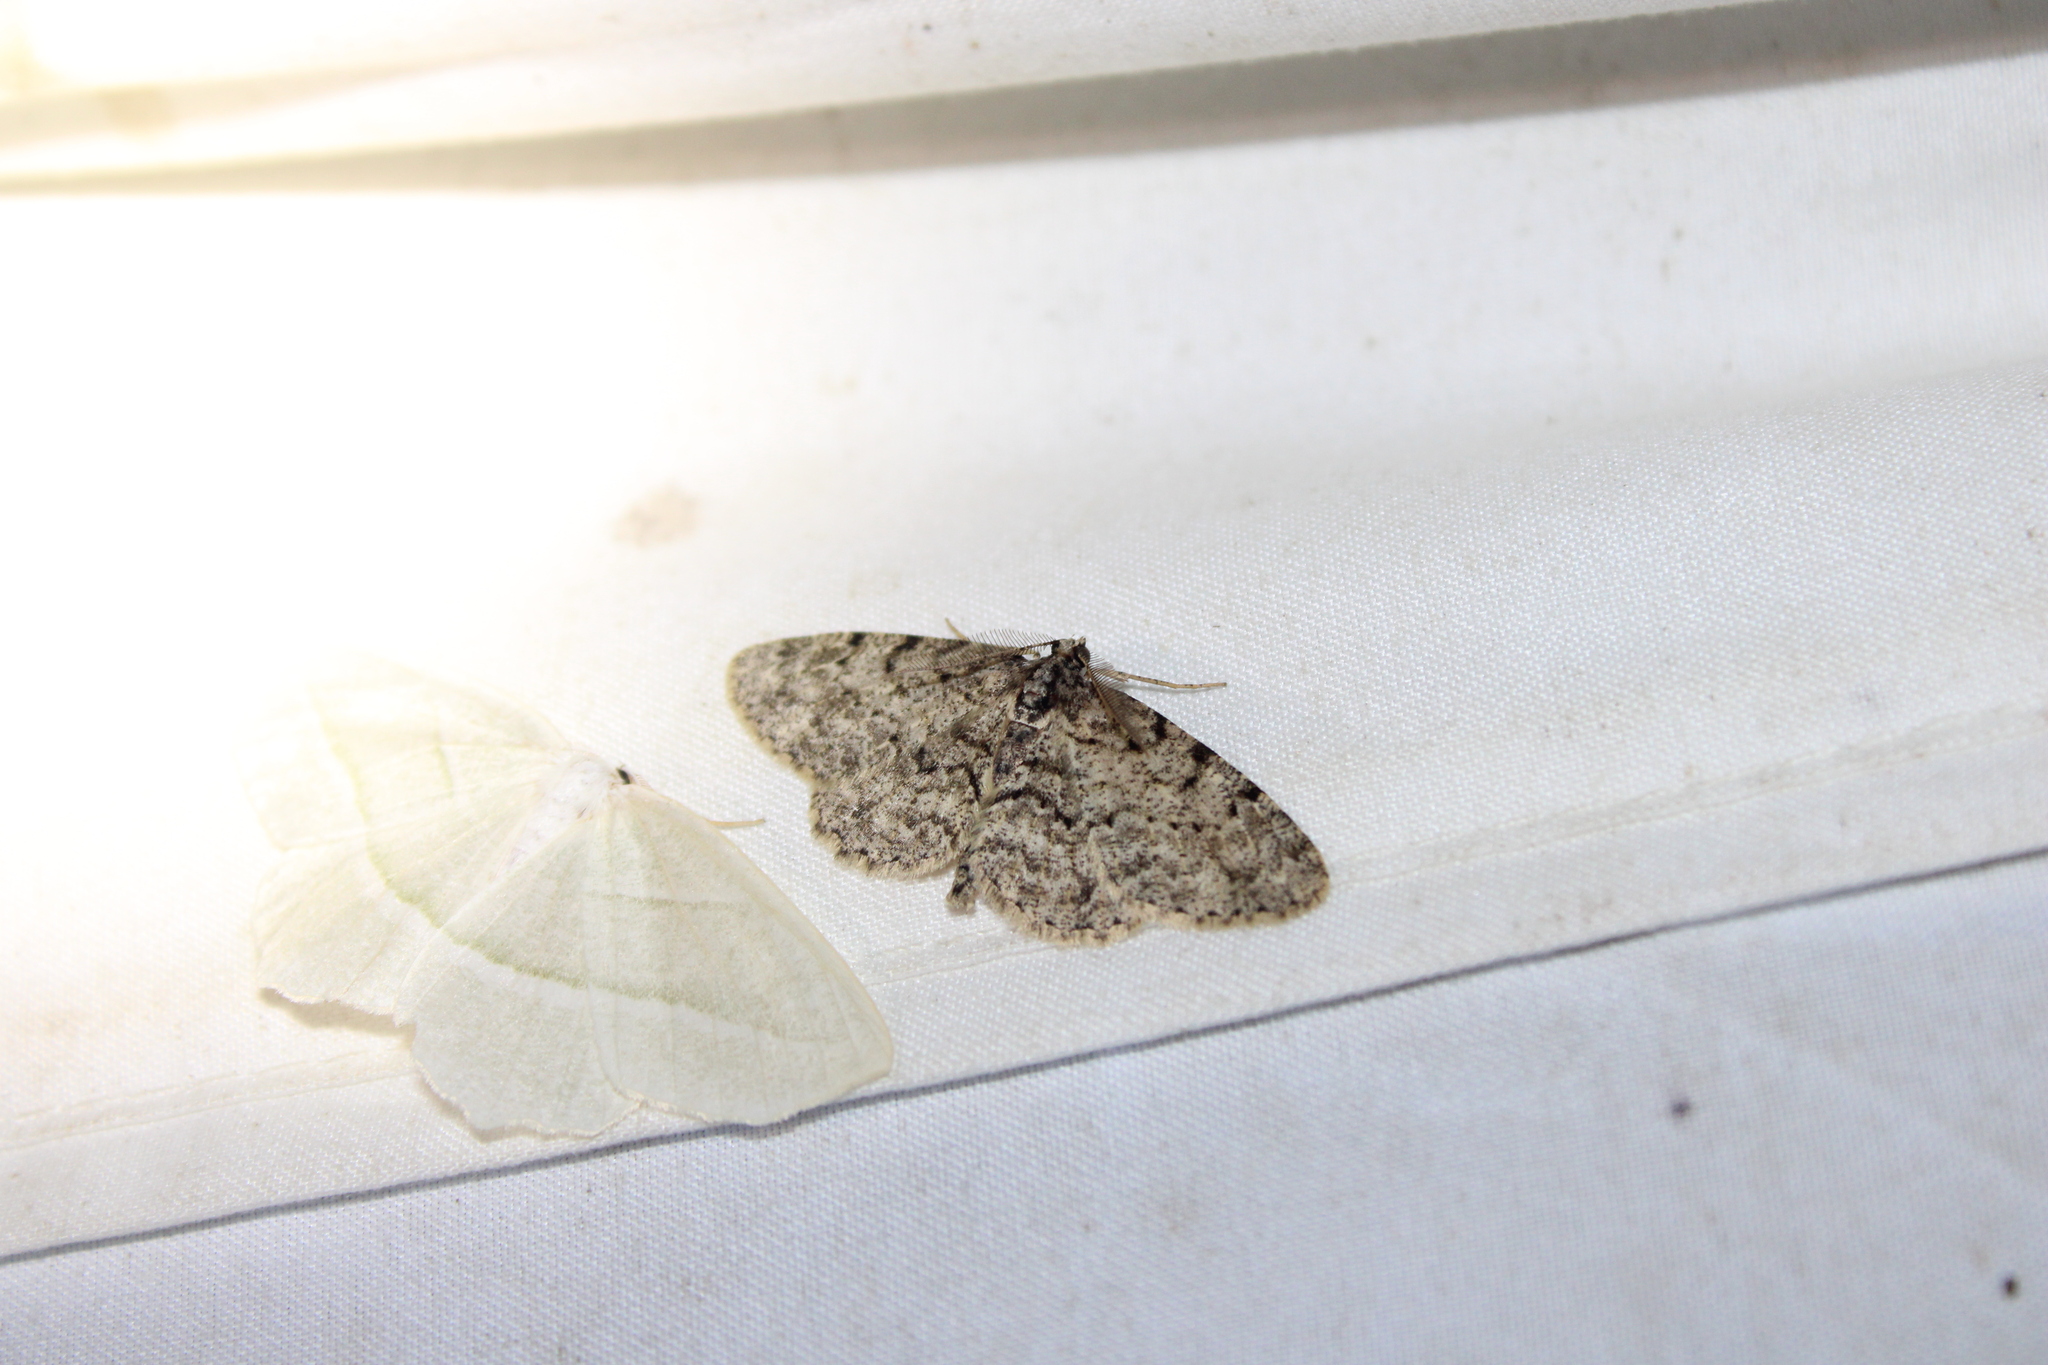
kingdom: Animalia
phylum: Arthropoda
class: Insecta
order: Lepidoptera
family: Geometridae
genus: Protoboarmia
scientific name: Protoboarmia porcelaria
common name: Porcelain gray
